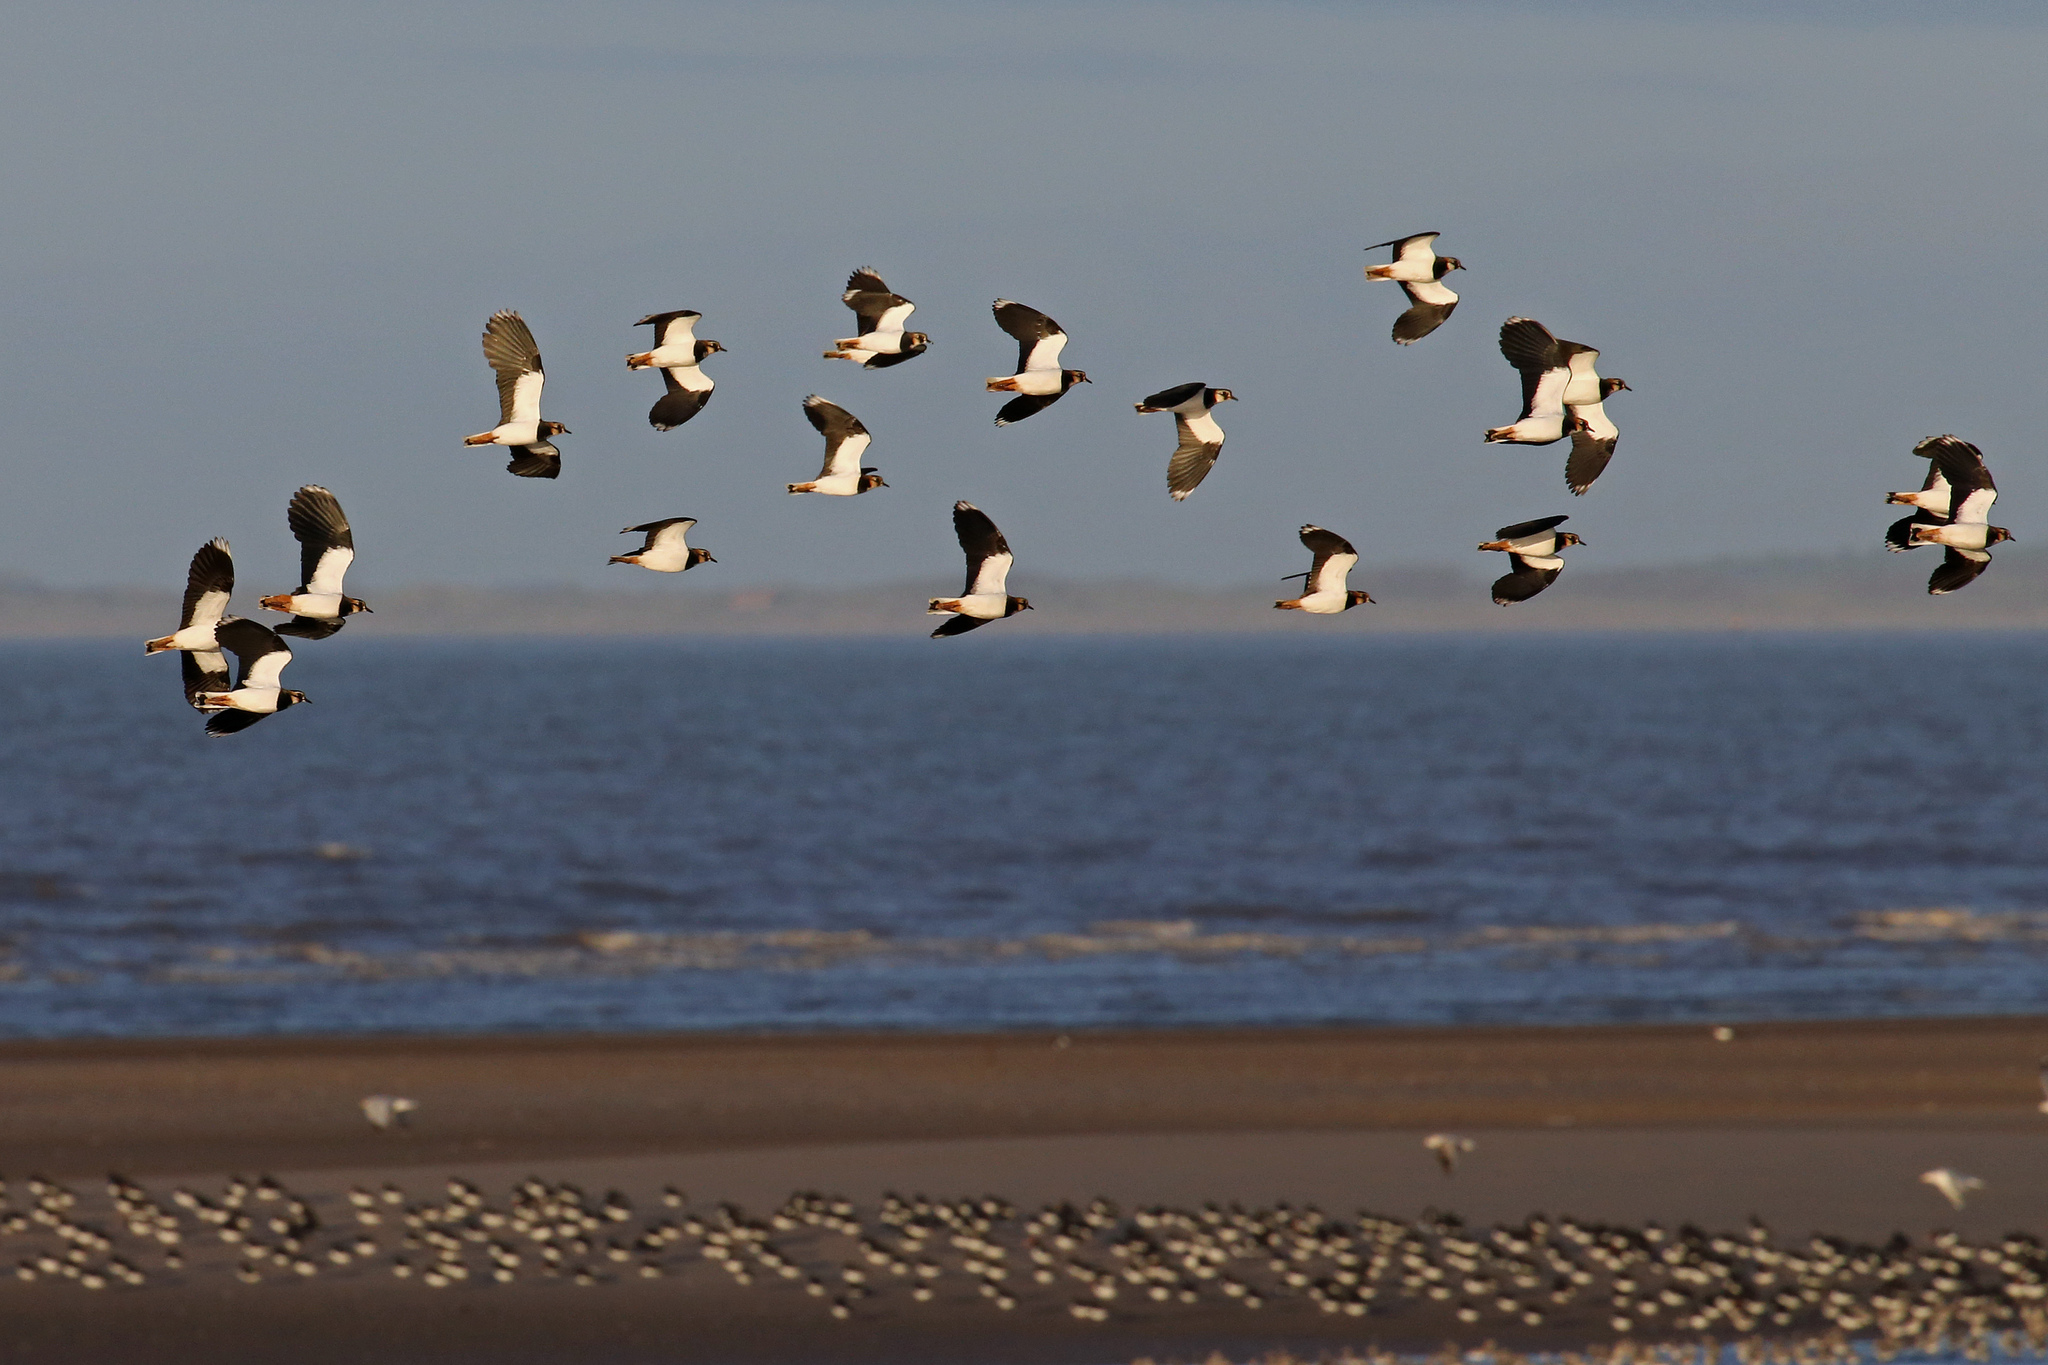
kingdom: Animalia
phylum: Chordata
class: Aves
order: Charadriiformes
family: Charadriidae
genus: Vanellus
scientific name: Vanellus vanellus
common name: Northern lapwing
